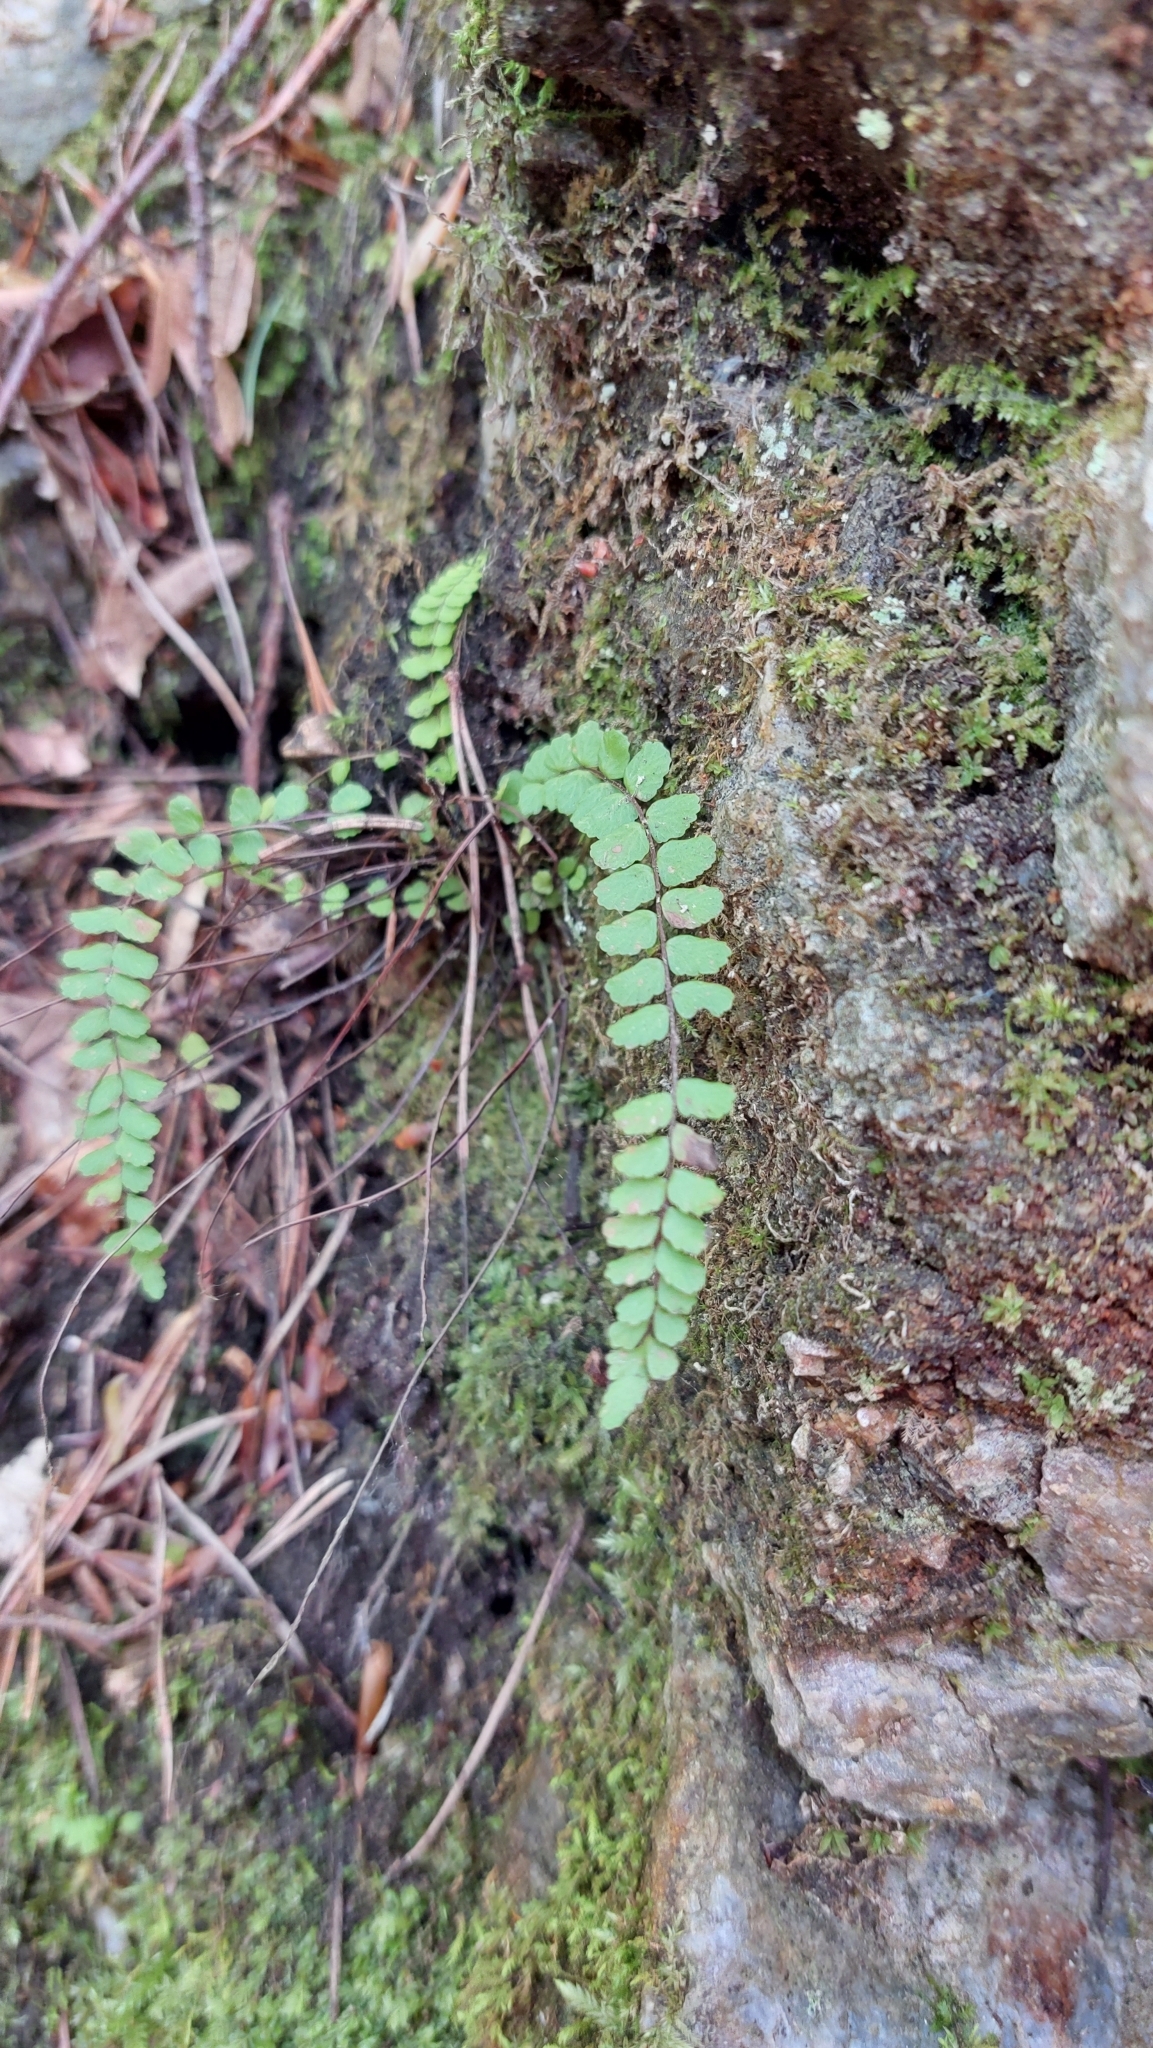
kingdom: Plantae
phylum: Tracheophyta
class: Polypodiopsida
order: Polypodiales
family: Aspleniaceae
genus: Asplenium
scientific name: Asplenium trichomanes
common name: Maidenhair spleenwort
